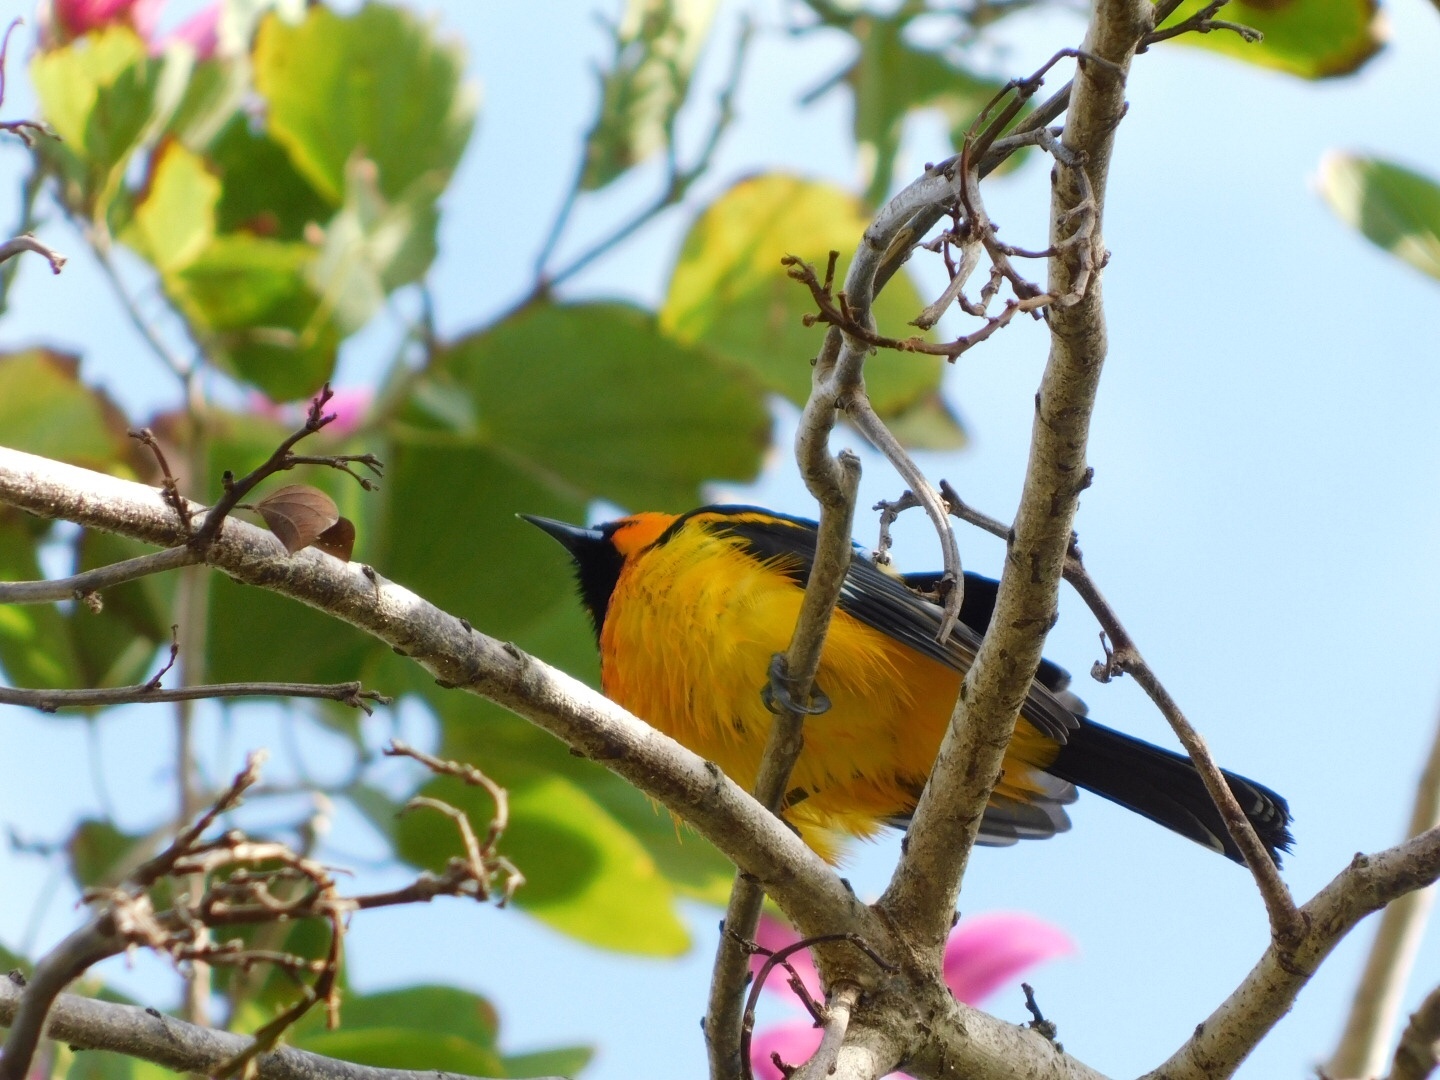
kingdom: Animalia
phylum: Chordata
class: Aves
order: Passeriformes
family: Icteridae
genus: Icterus
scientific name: Icterus pectoralis
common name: Spot-breasted oriole
